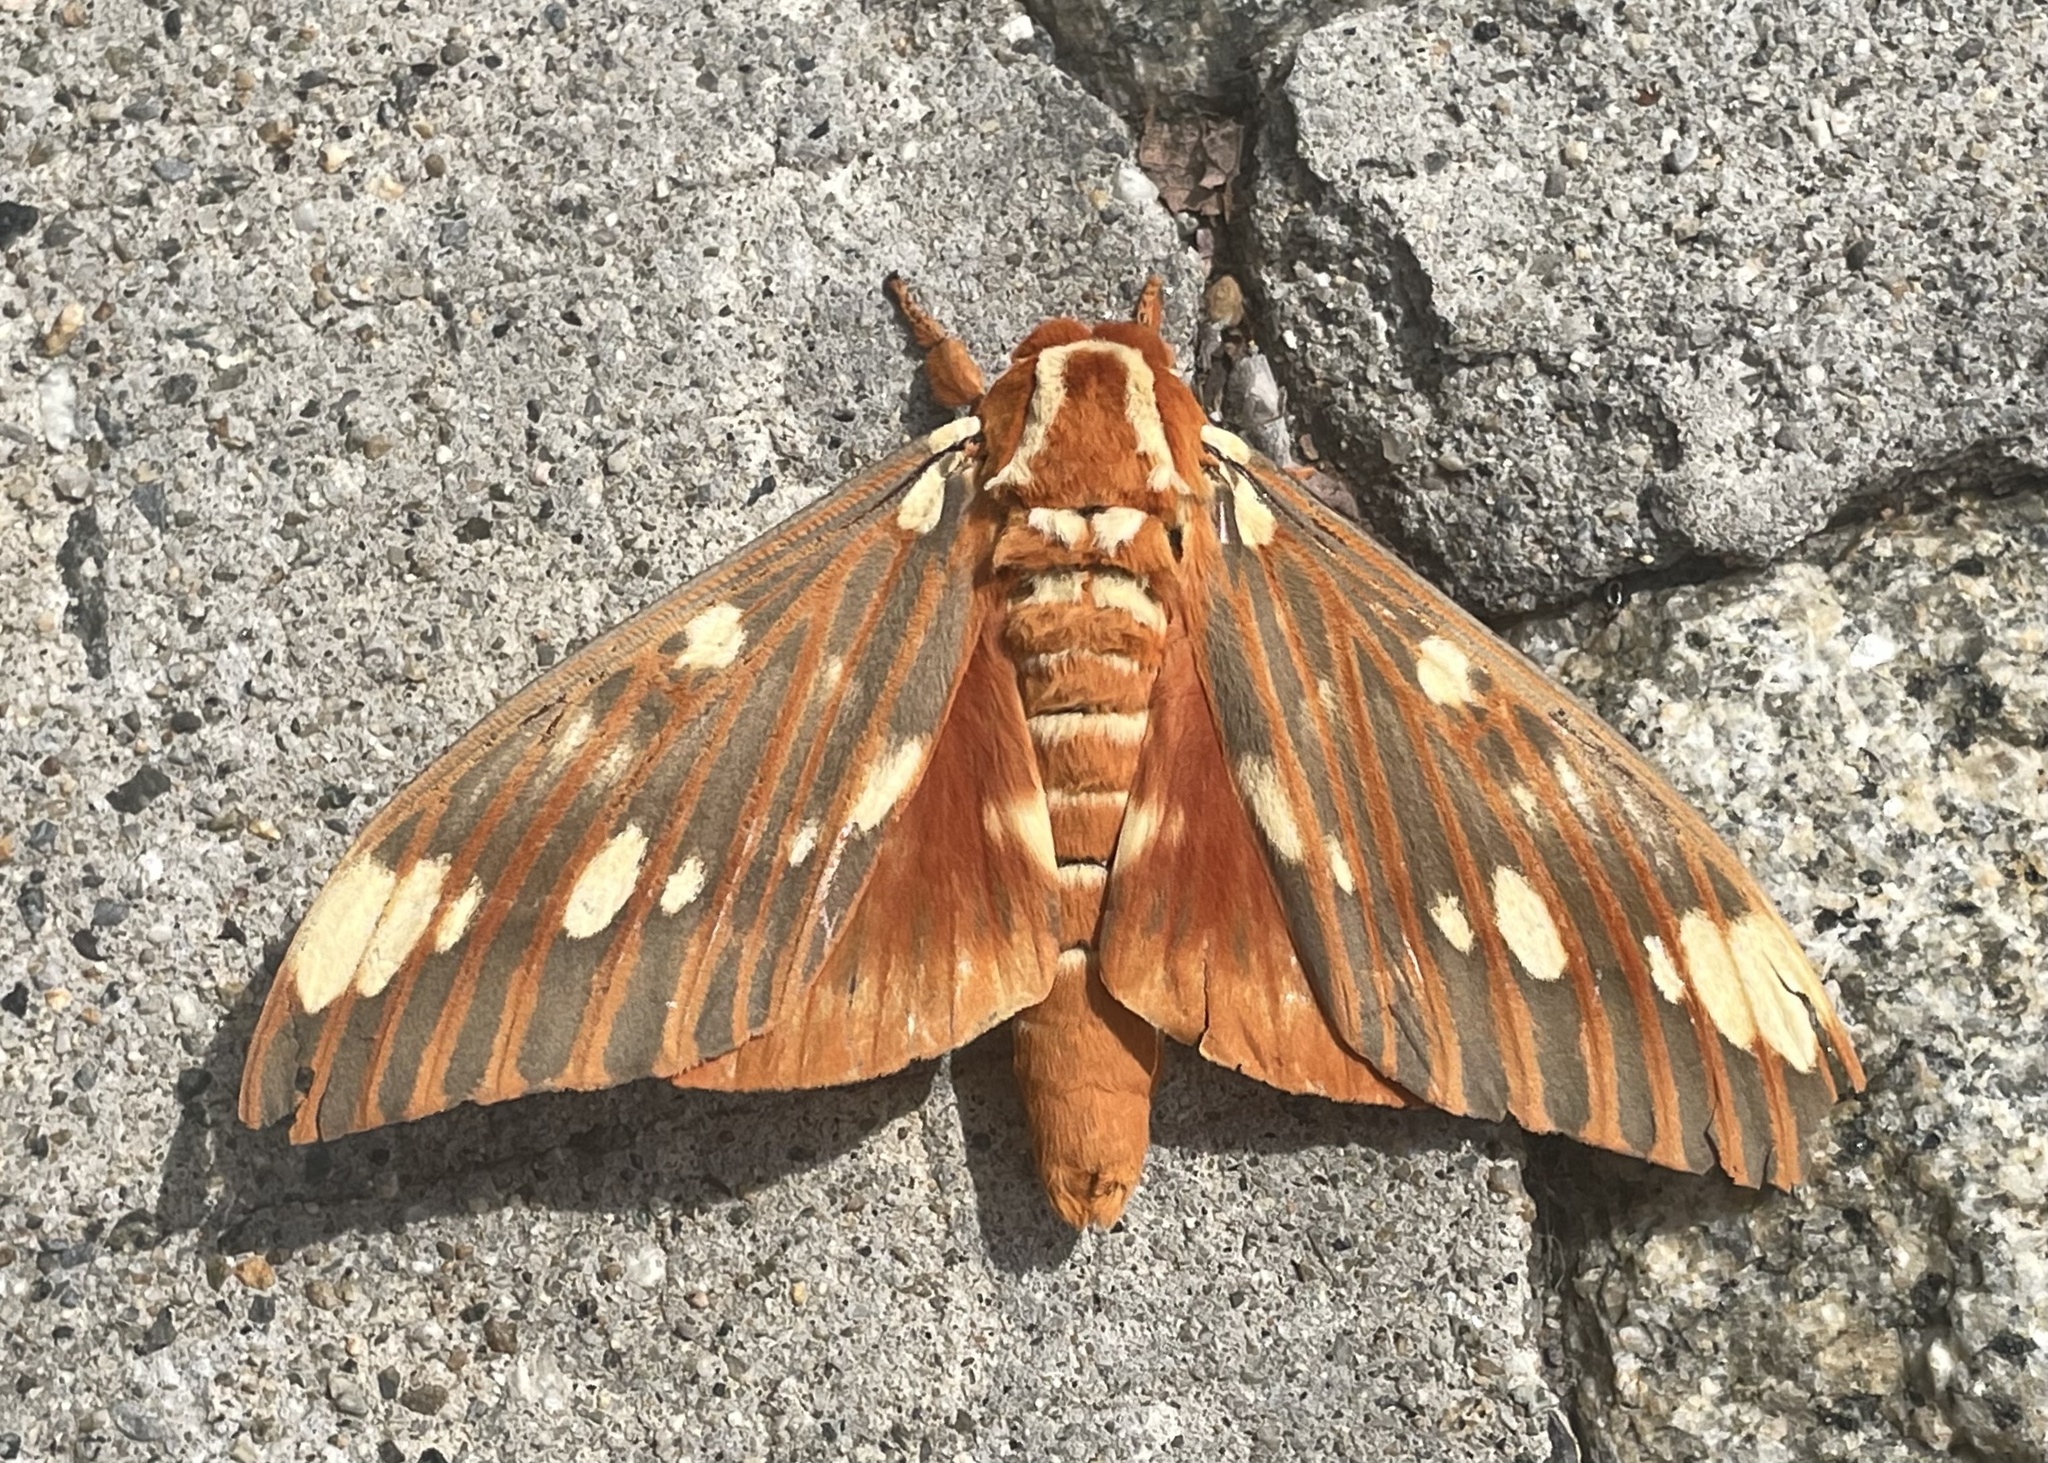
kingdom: Animalia
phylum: Arthropoda
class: Insecta
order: Lepidoptera
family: Saturniidae
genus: Citheronia
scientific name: Citheronia regalis
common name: Hickory horned devil
